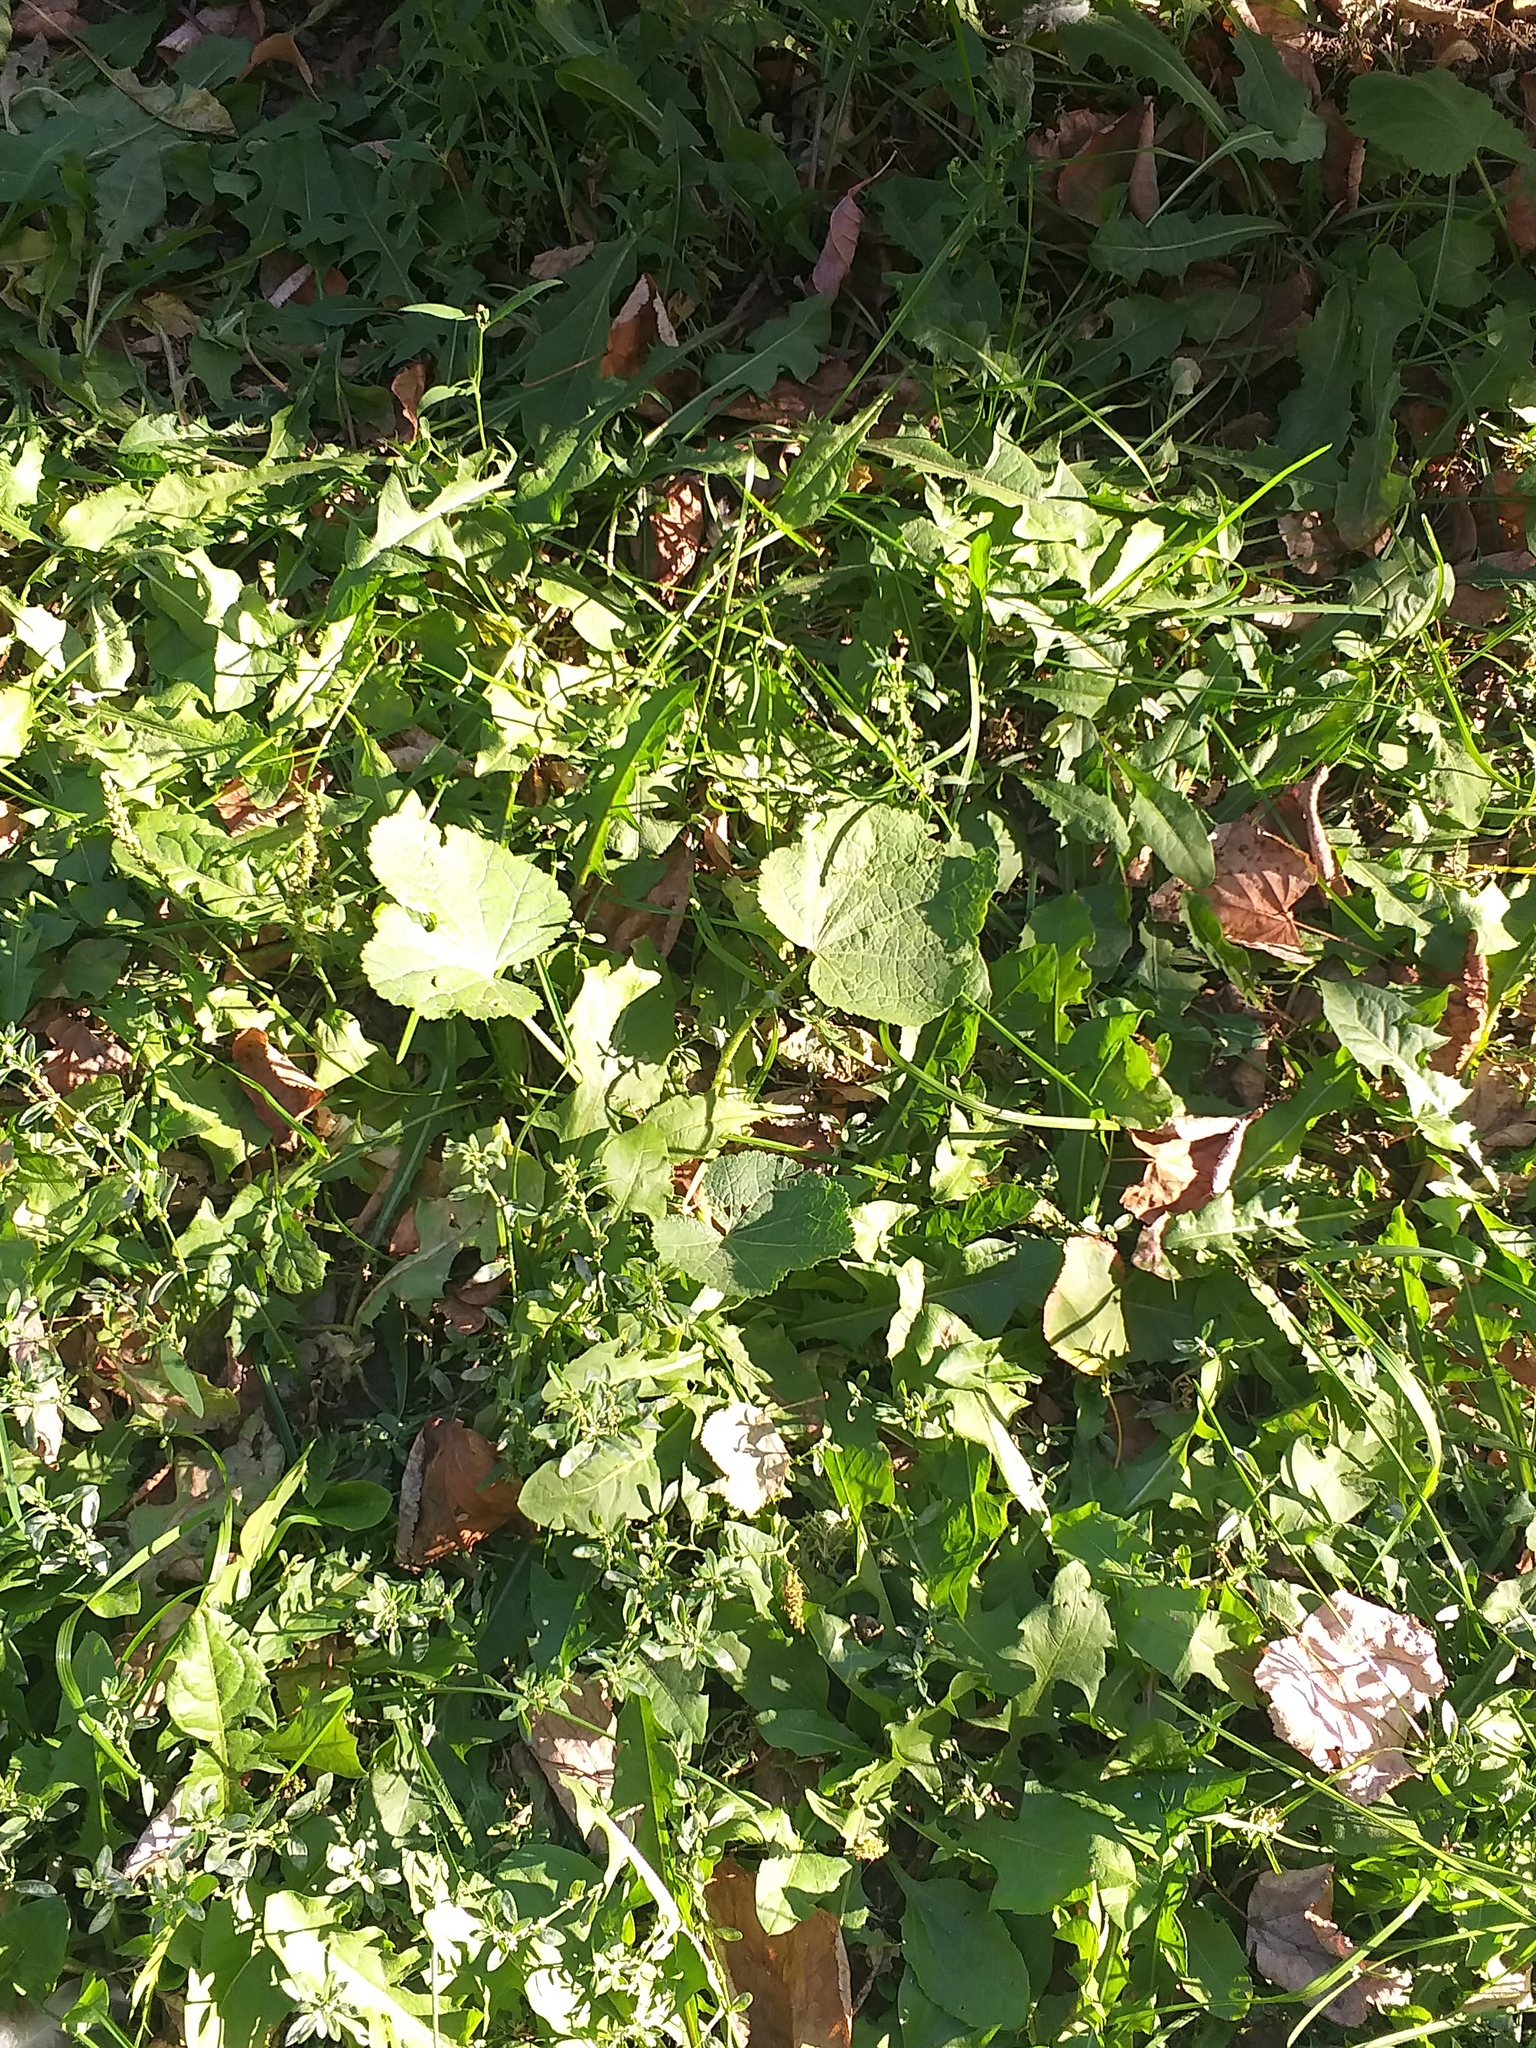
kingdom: Plantae
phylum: Tracheophyta
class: Magnoliopsida
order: Malvales
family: Malvaceae
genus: Alcea
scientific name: Alcea rosea
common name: Hollyhock
